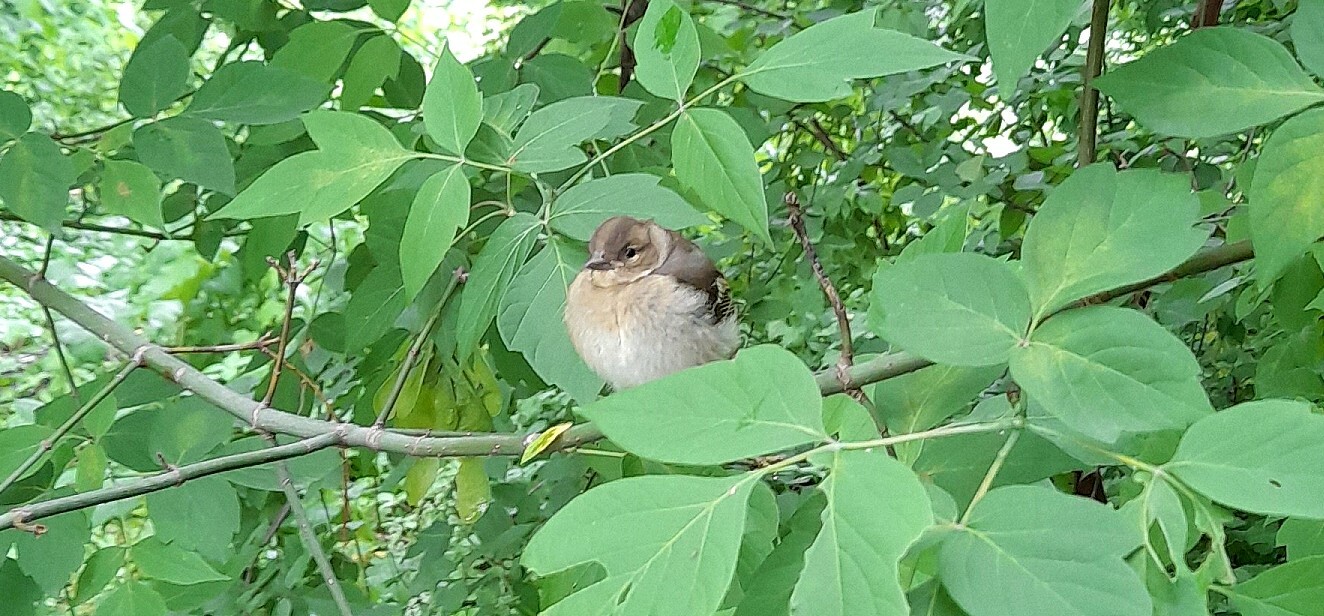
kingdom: Animalia
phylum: Chordata
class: Aves
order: Passeriformes
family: Fringillidae
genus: Fringilla
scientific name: Fringilla coelebs
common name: Common chaffinch
